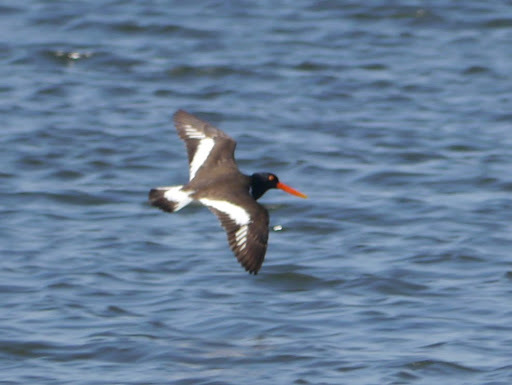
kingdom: Animalia
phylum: Chordata
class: Aves
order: Charadriiformes
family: Haematopodidae
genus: Haematopus
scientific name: Haematopus palliatus
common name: American oystercatcher
